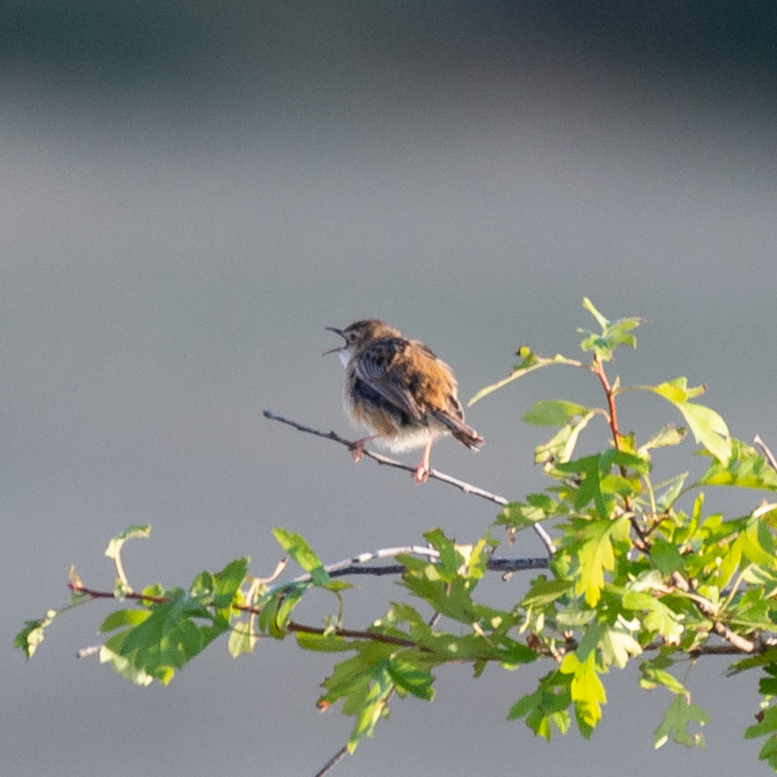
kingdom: Animalia
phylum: Chordata
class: Aves
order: Passeriformes
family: Cisticolidae
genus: Cisticola
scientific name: Cisticola juncidis
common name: Zitting cisticola
